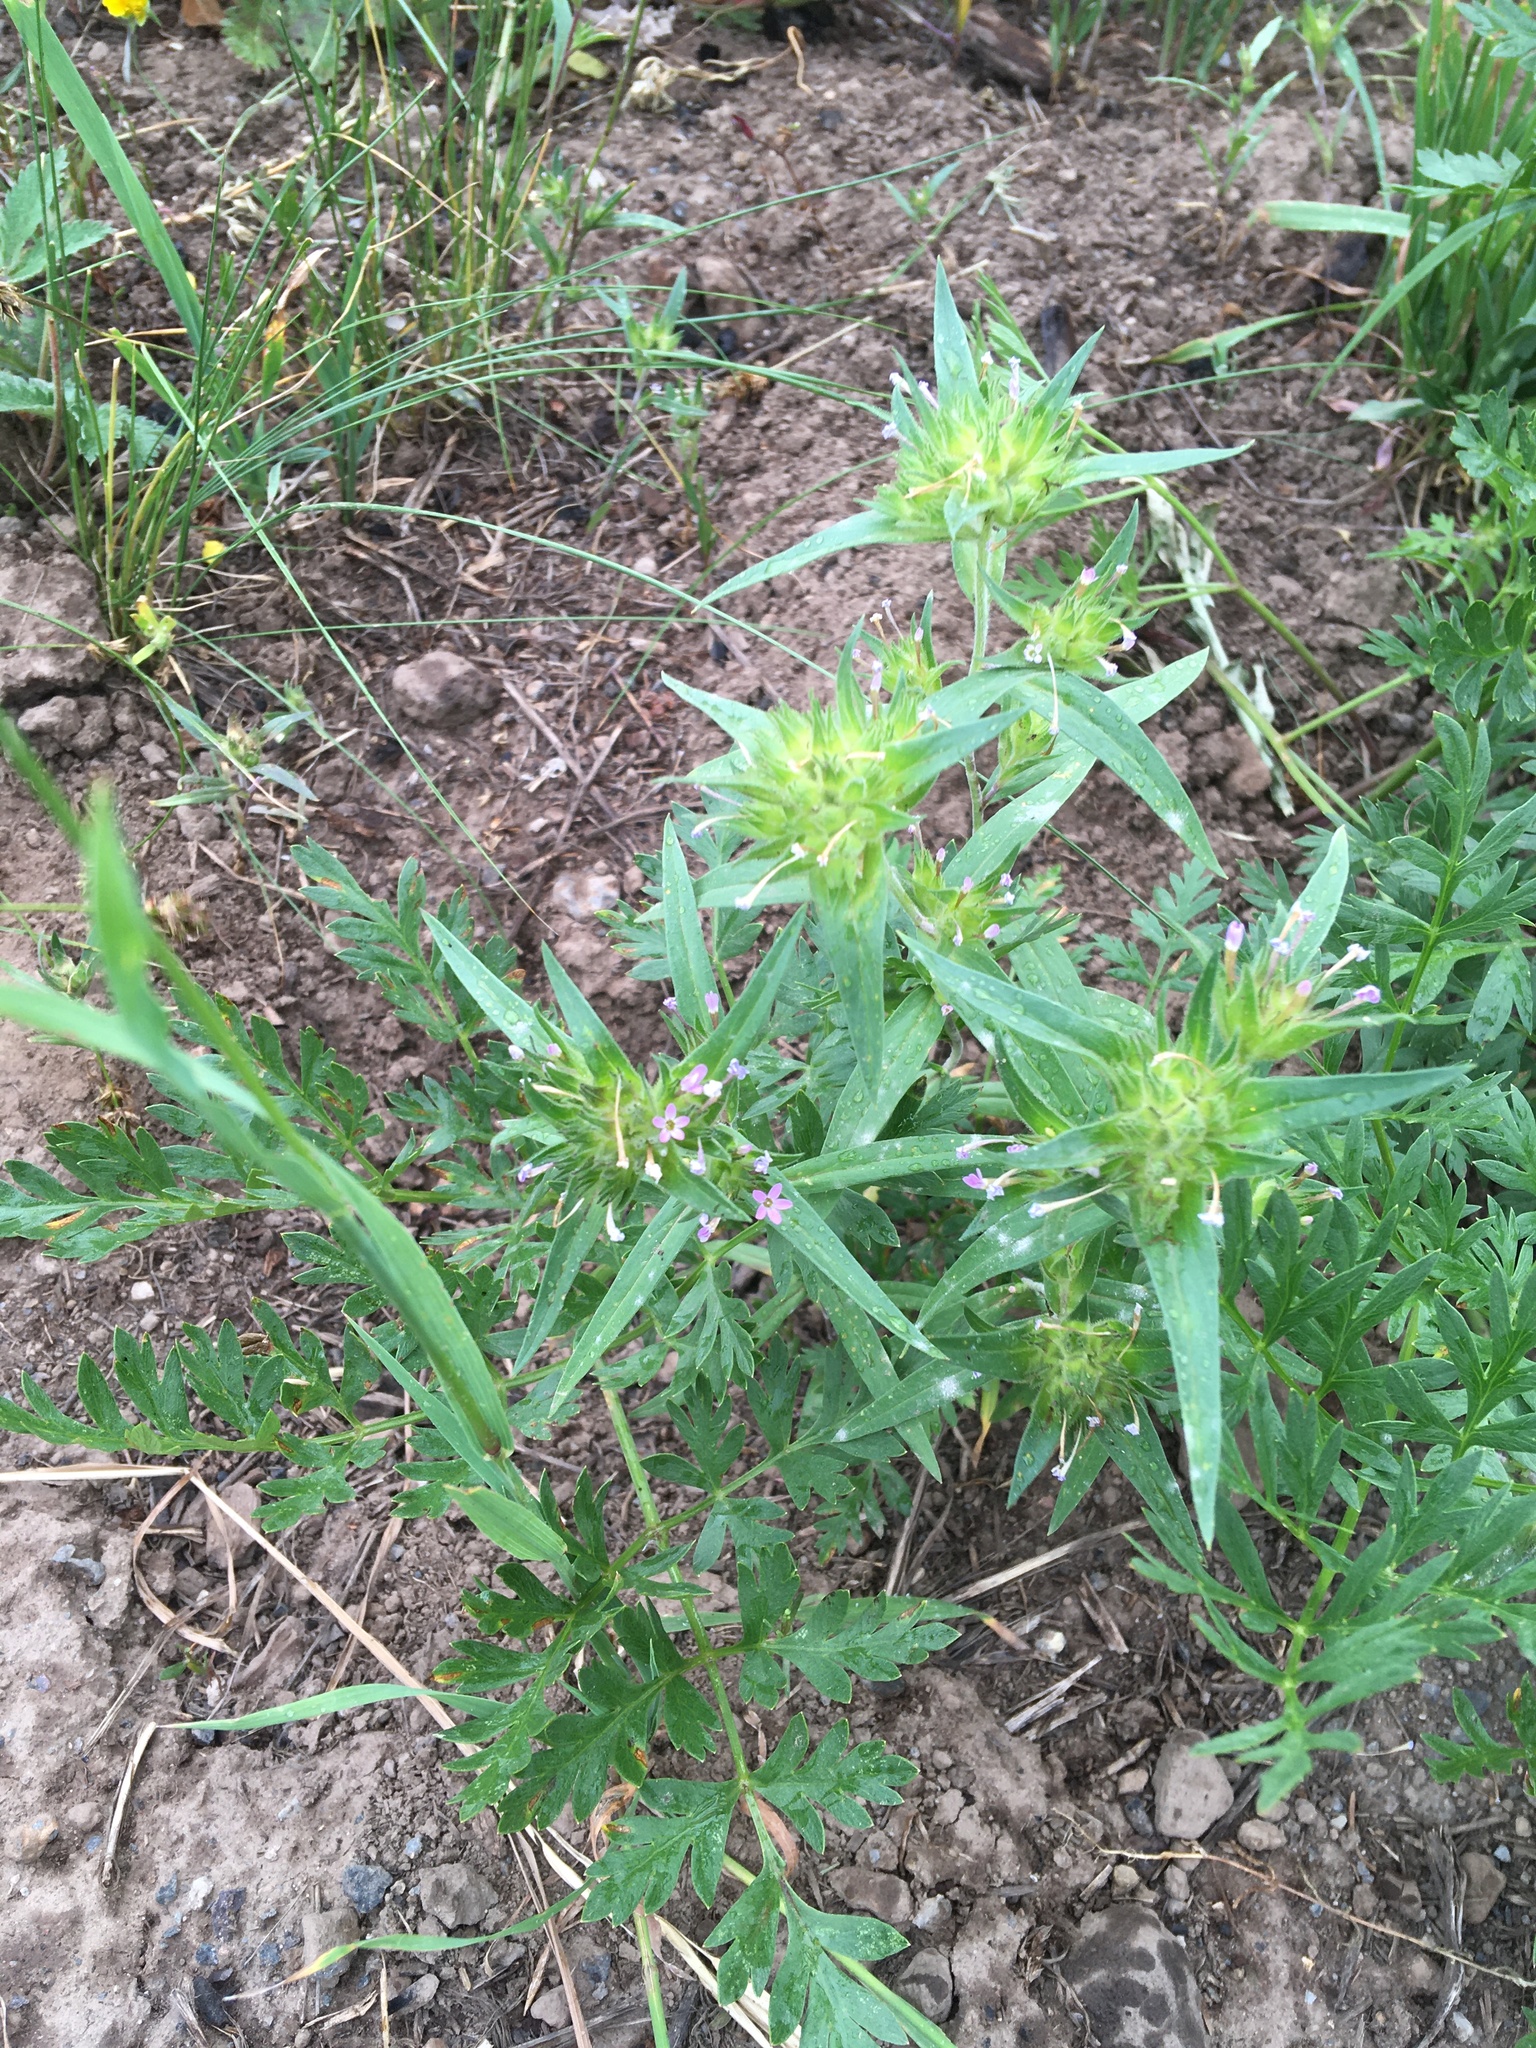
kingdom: Plantae
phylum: Tracheophyta
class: Magnoliopsida
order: Ericales
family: Polemoniaceae
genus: Collomia
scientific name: Collomia linearis
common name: Tiny trumpet
